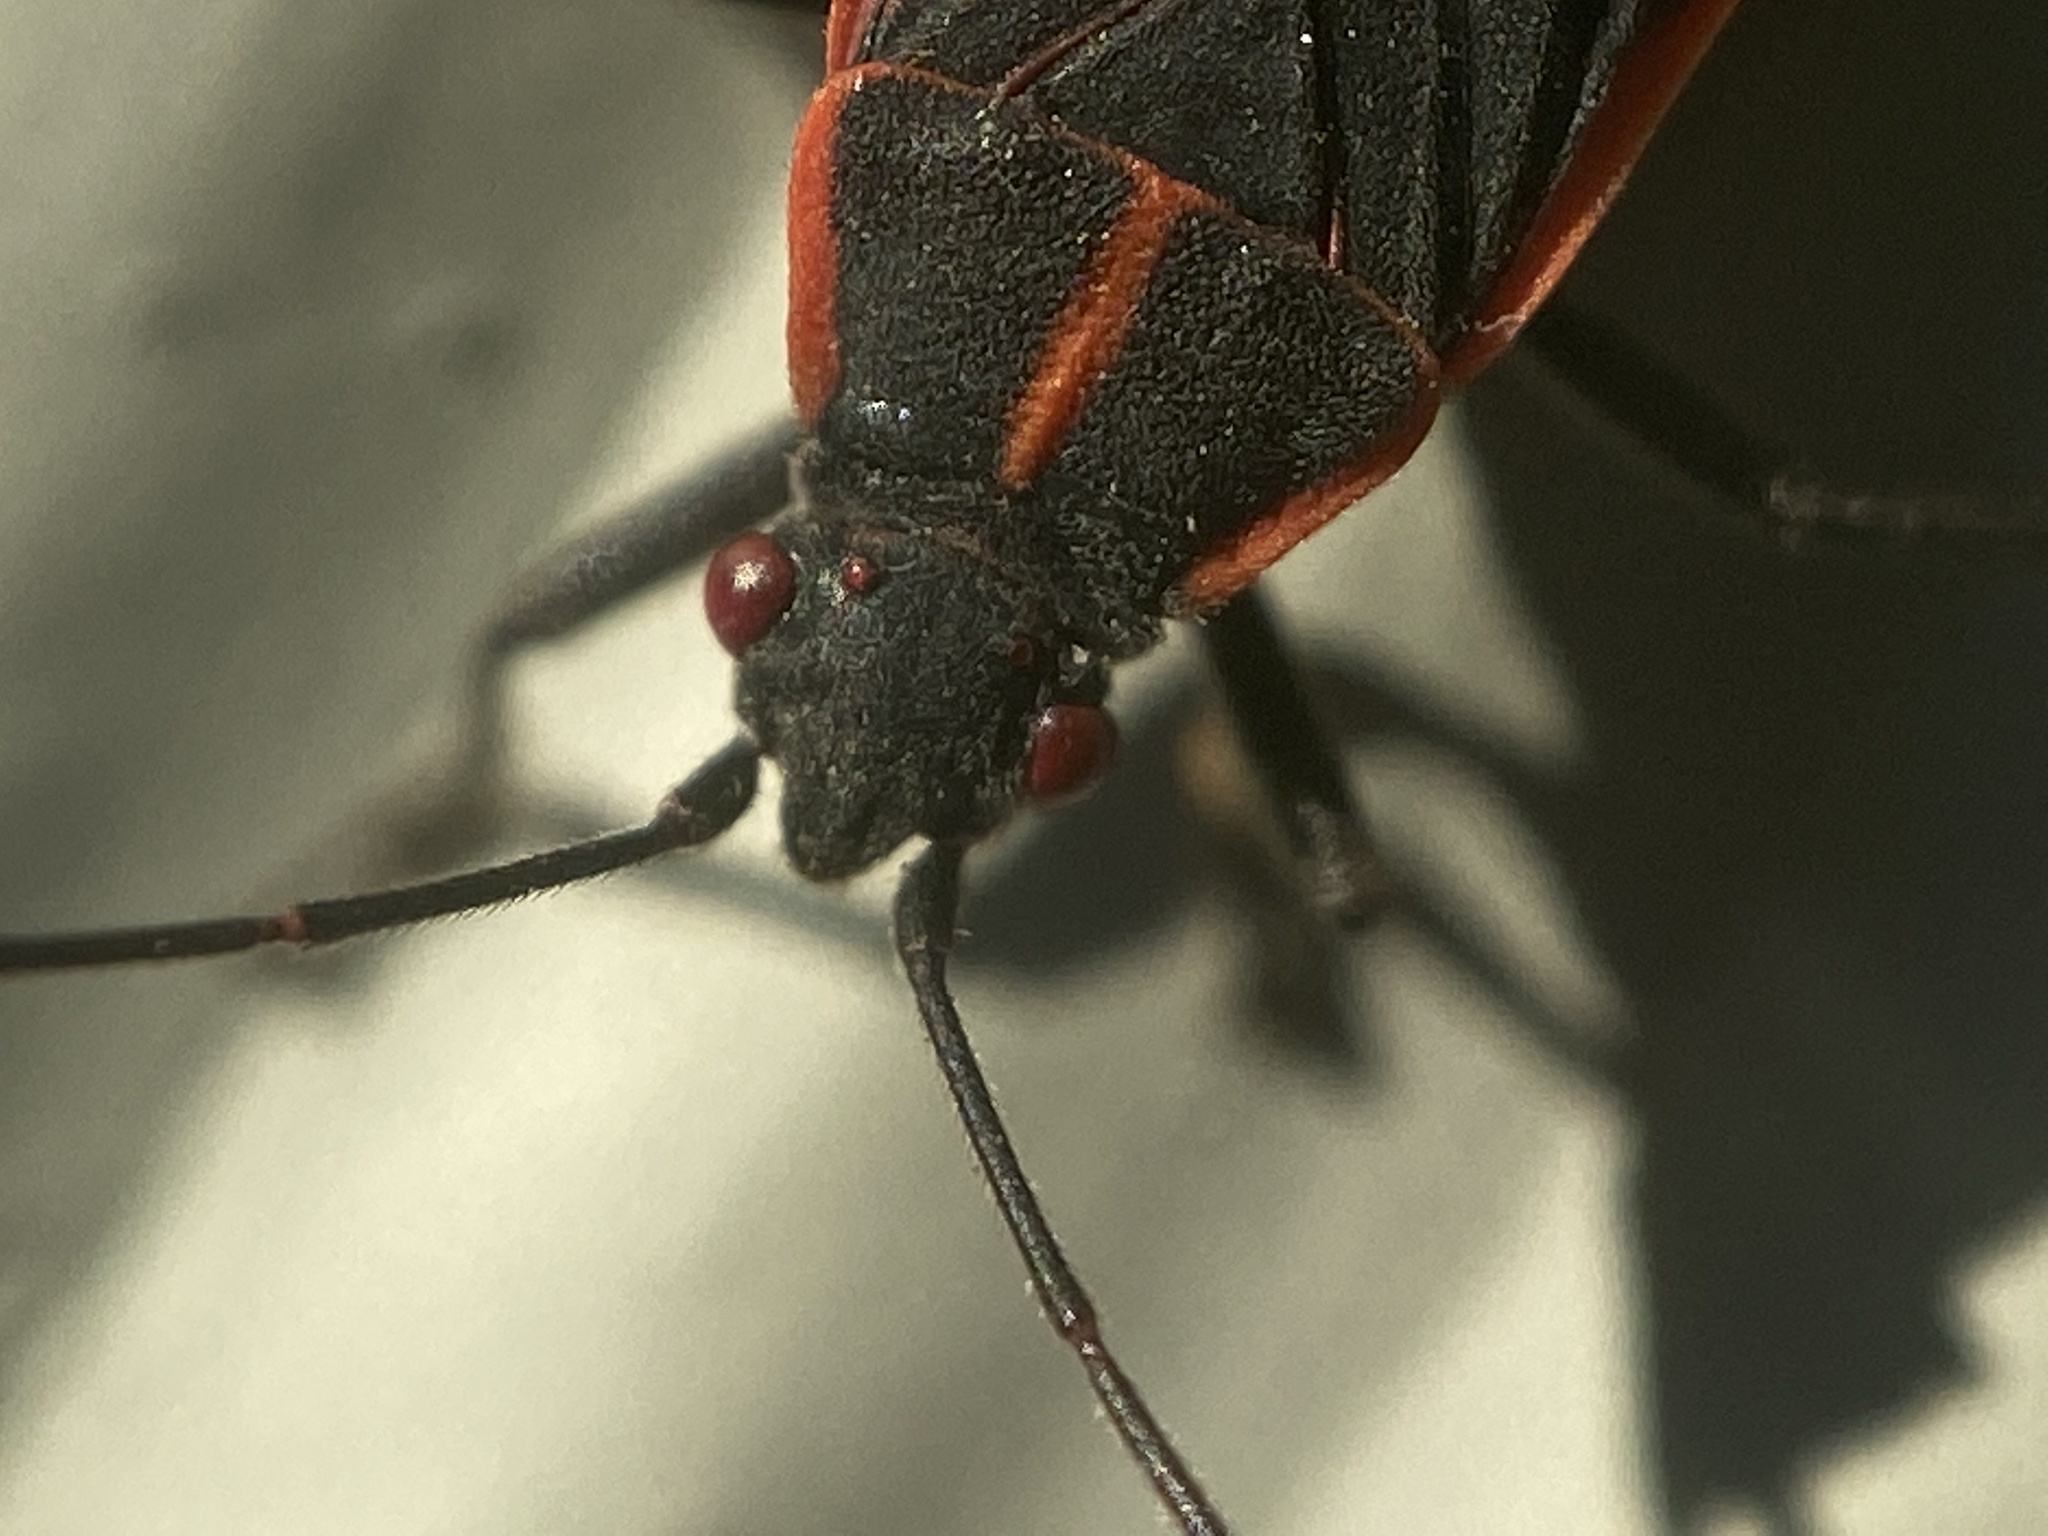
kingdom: Animalia
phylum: Arthropoda
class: Insecta
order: Hemiptera
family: Rhopalidae
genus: Boisea
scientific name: Boisea trivittata
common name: Boxelder bug
